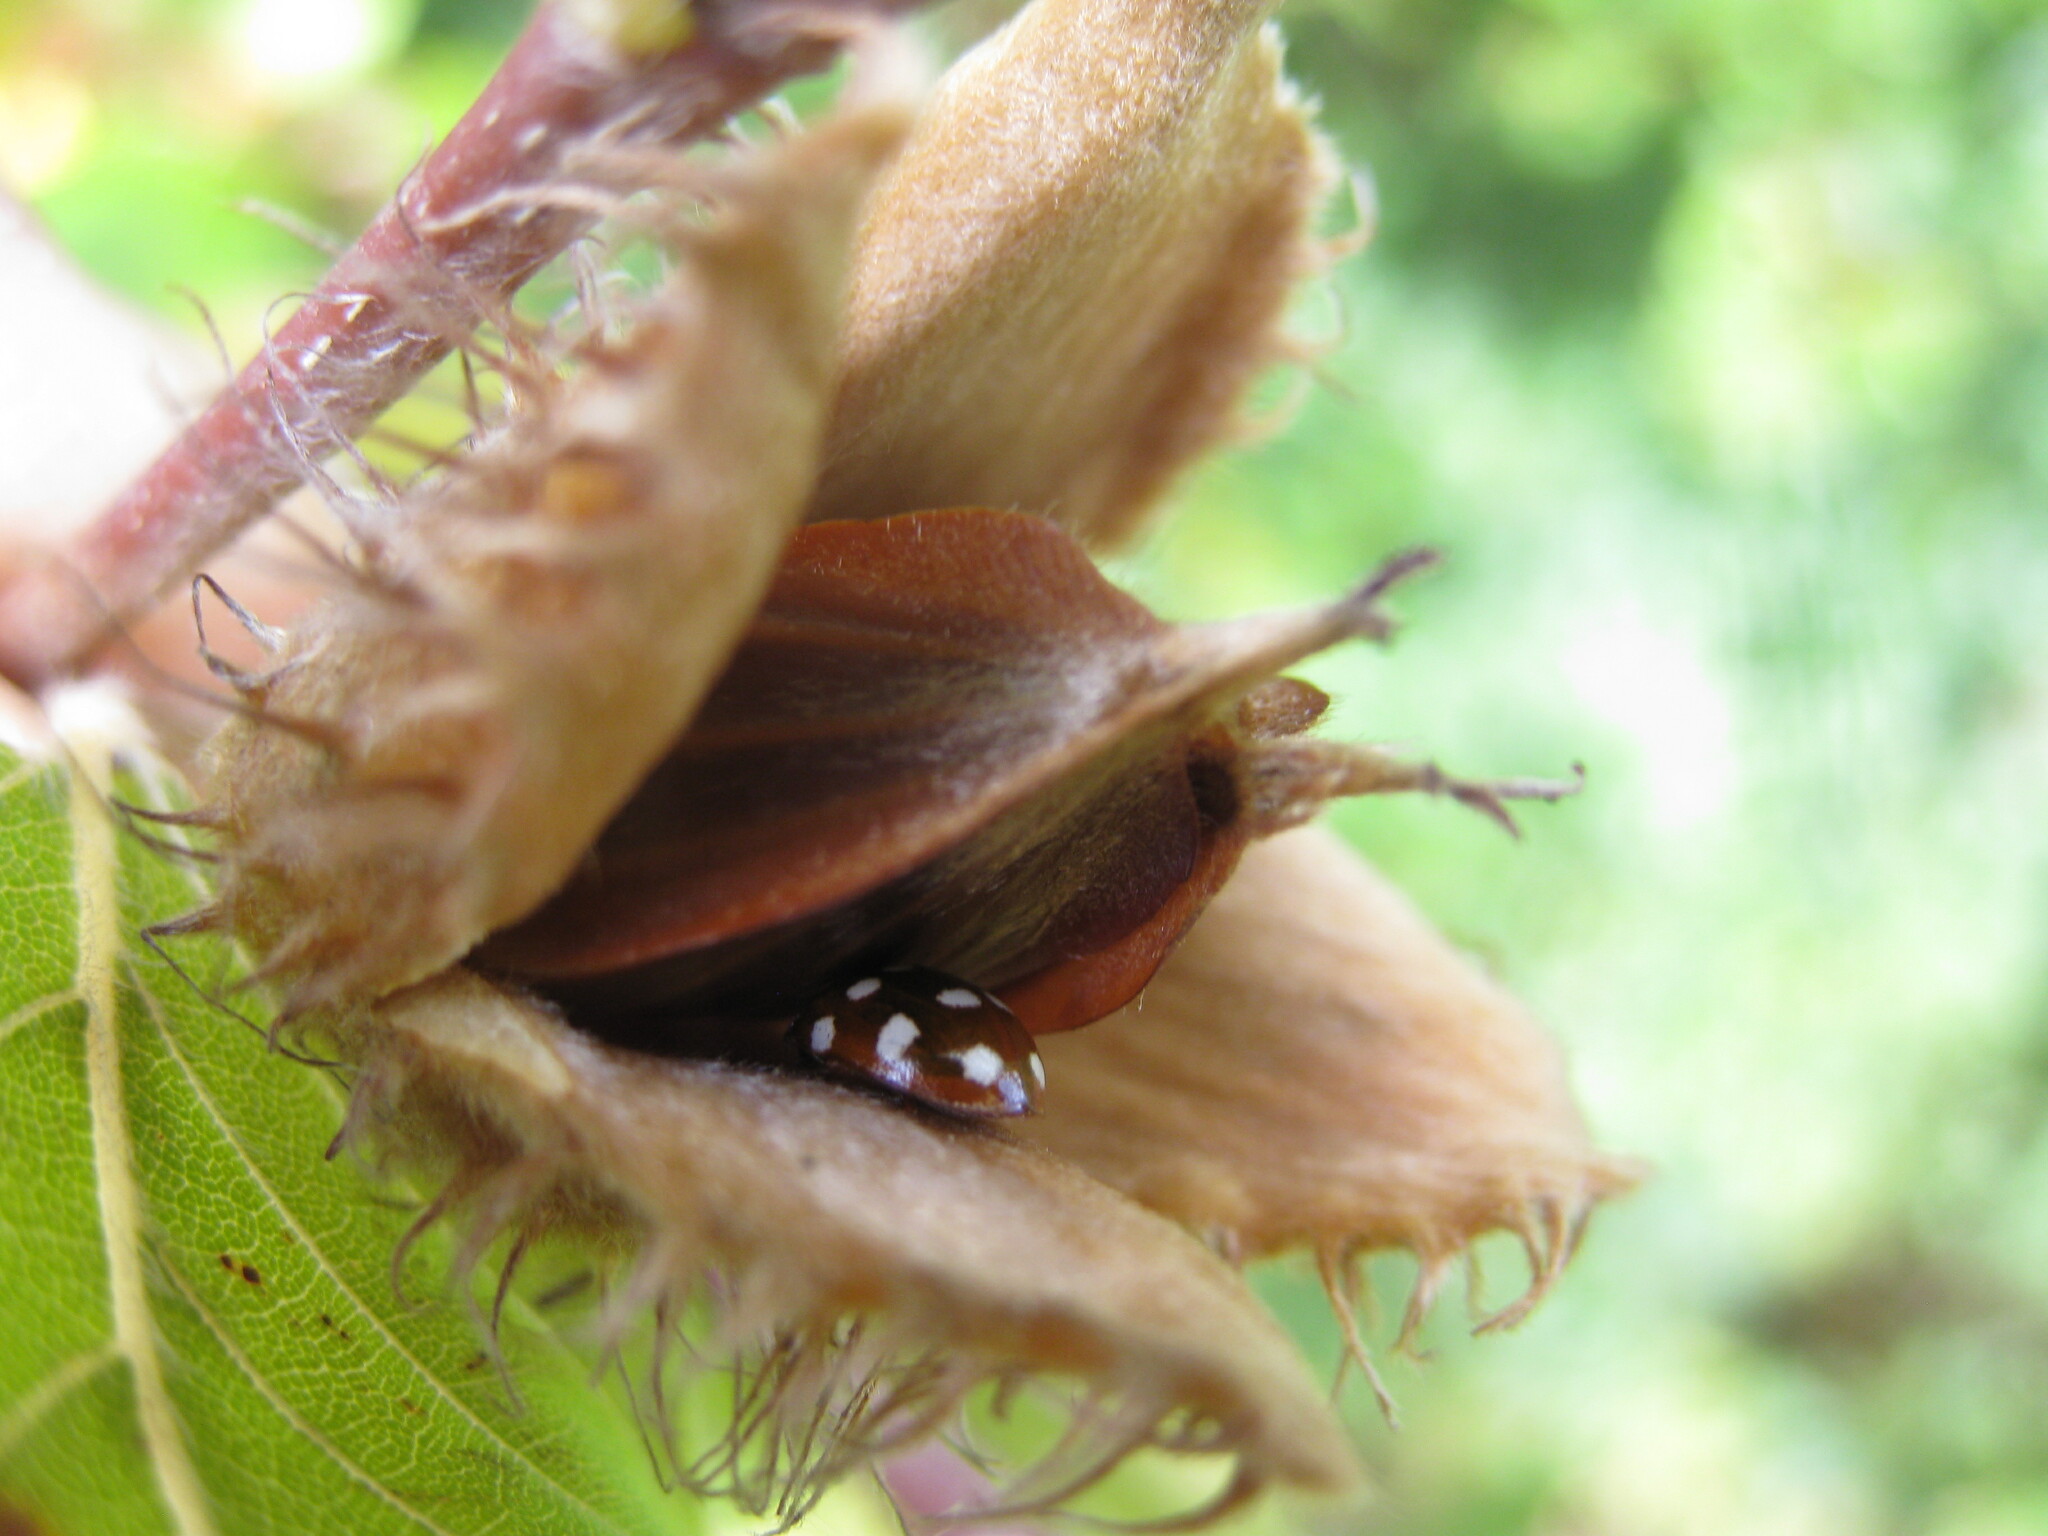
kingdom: Animalia
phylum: Arthropoda
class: Insecta
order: Coleoptera
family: Coccinellidae
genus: Calvia
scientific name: Calvia quatuordecimguttata
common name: Cream-spot ladybird
